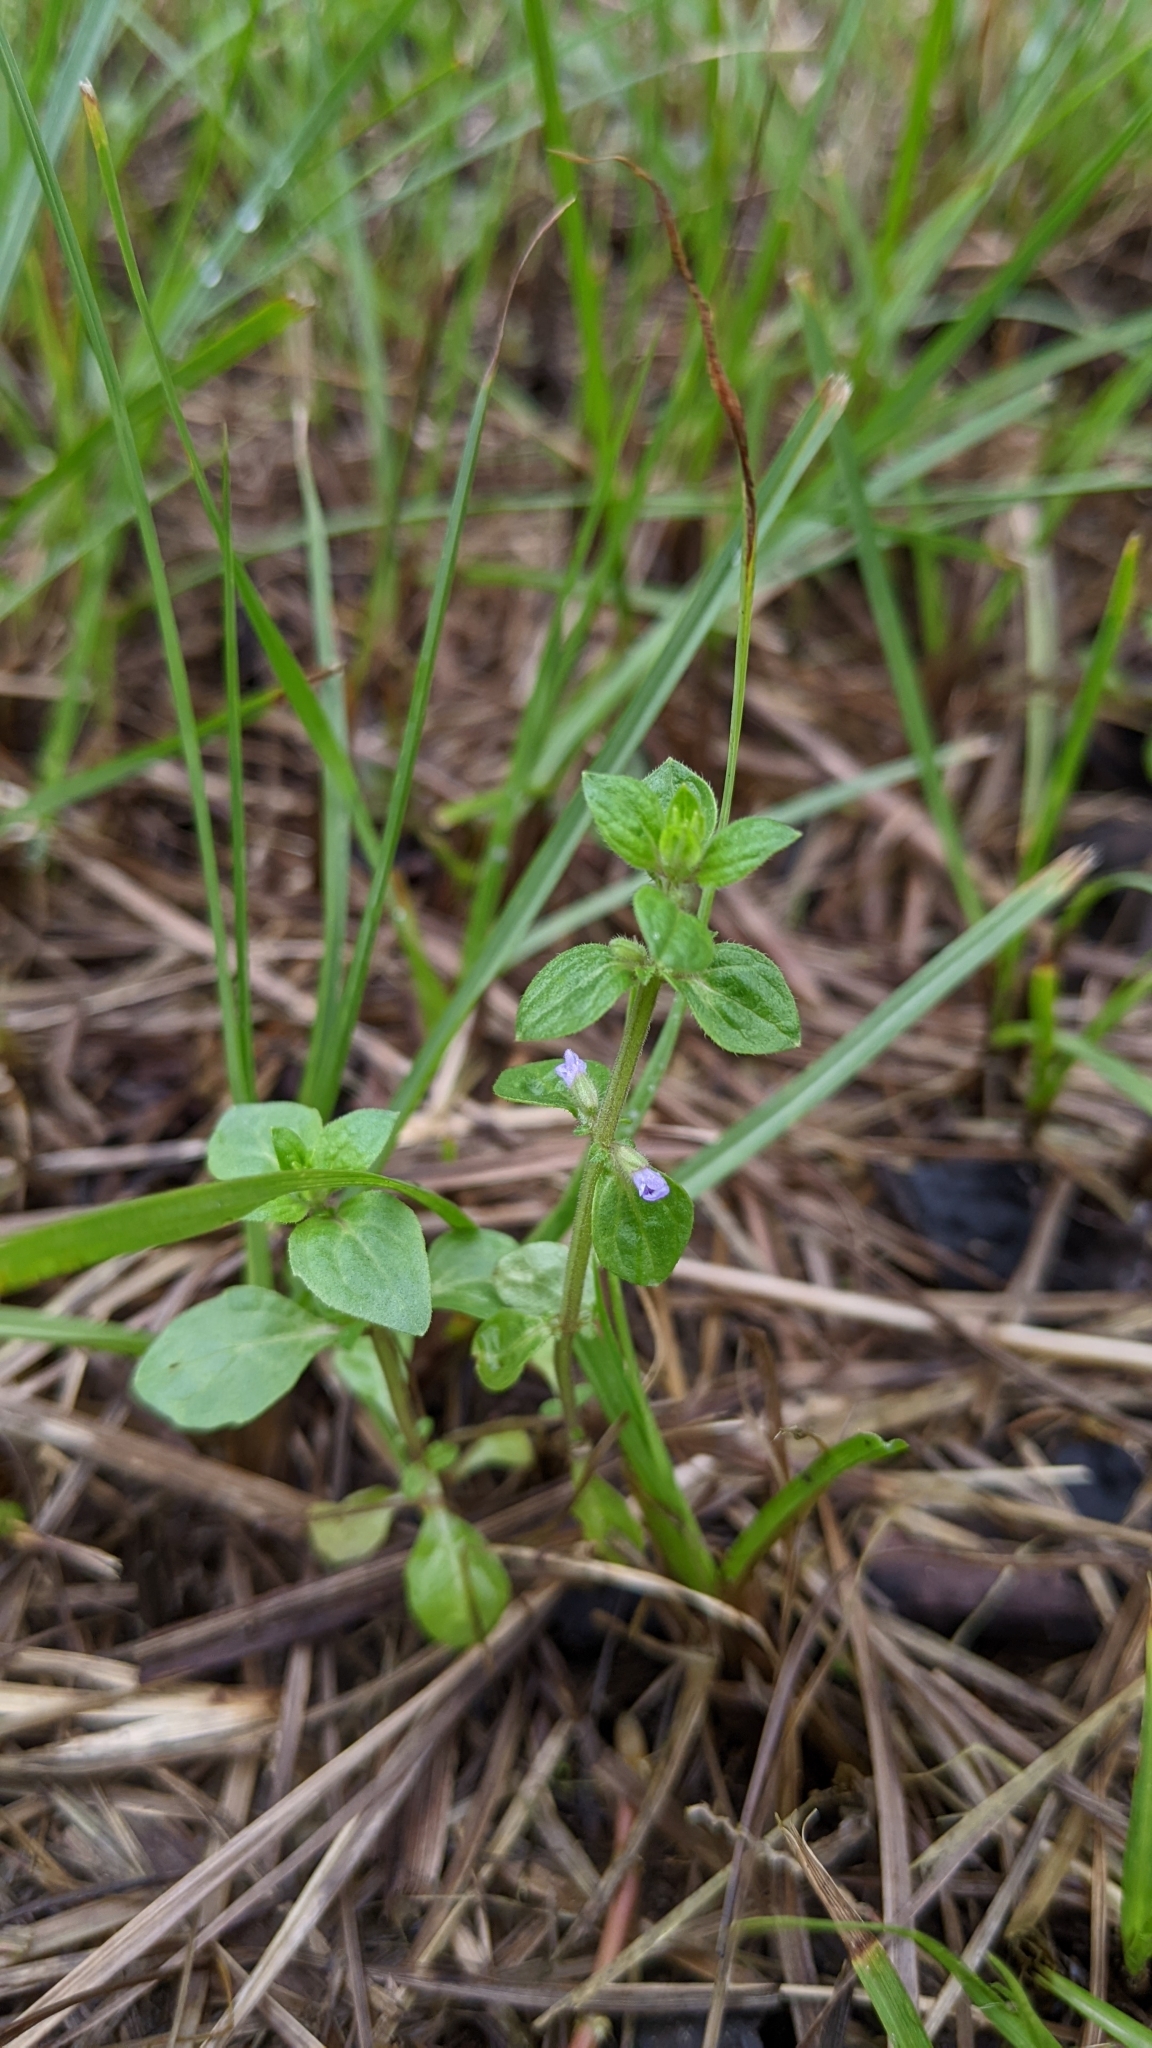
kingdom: Plantae
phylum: Tracheophyta
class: Magnoliopsida
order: Lamiales
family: Lamiaceae
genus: Salvia
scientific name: Salvia plebeia
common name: Australian sage
